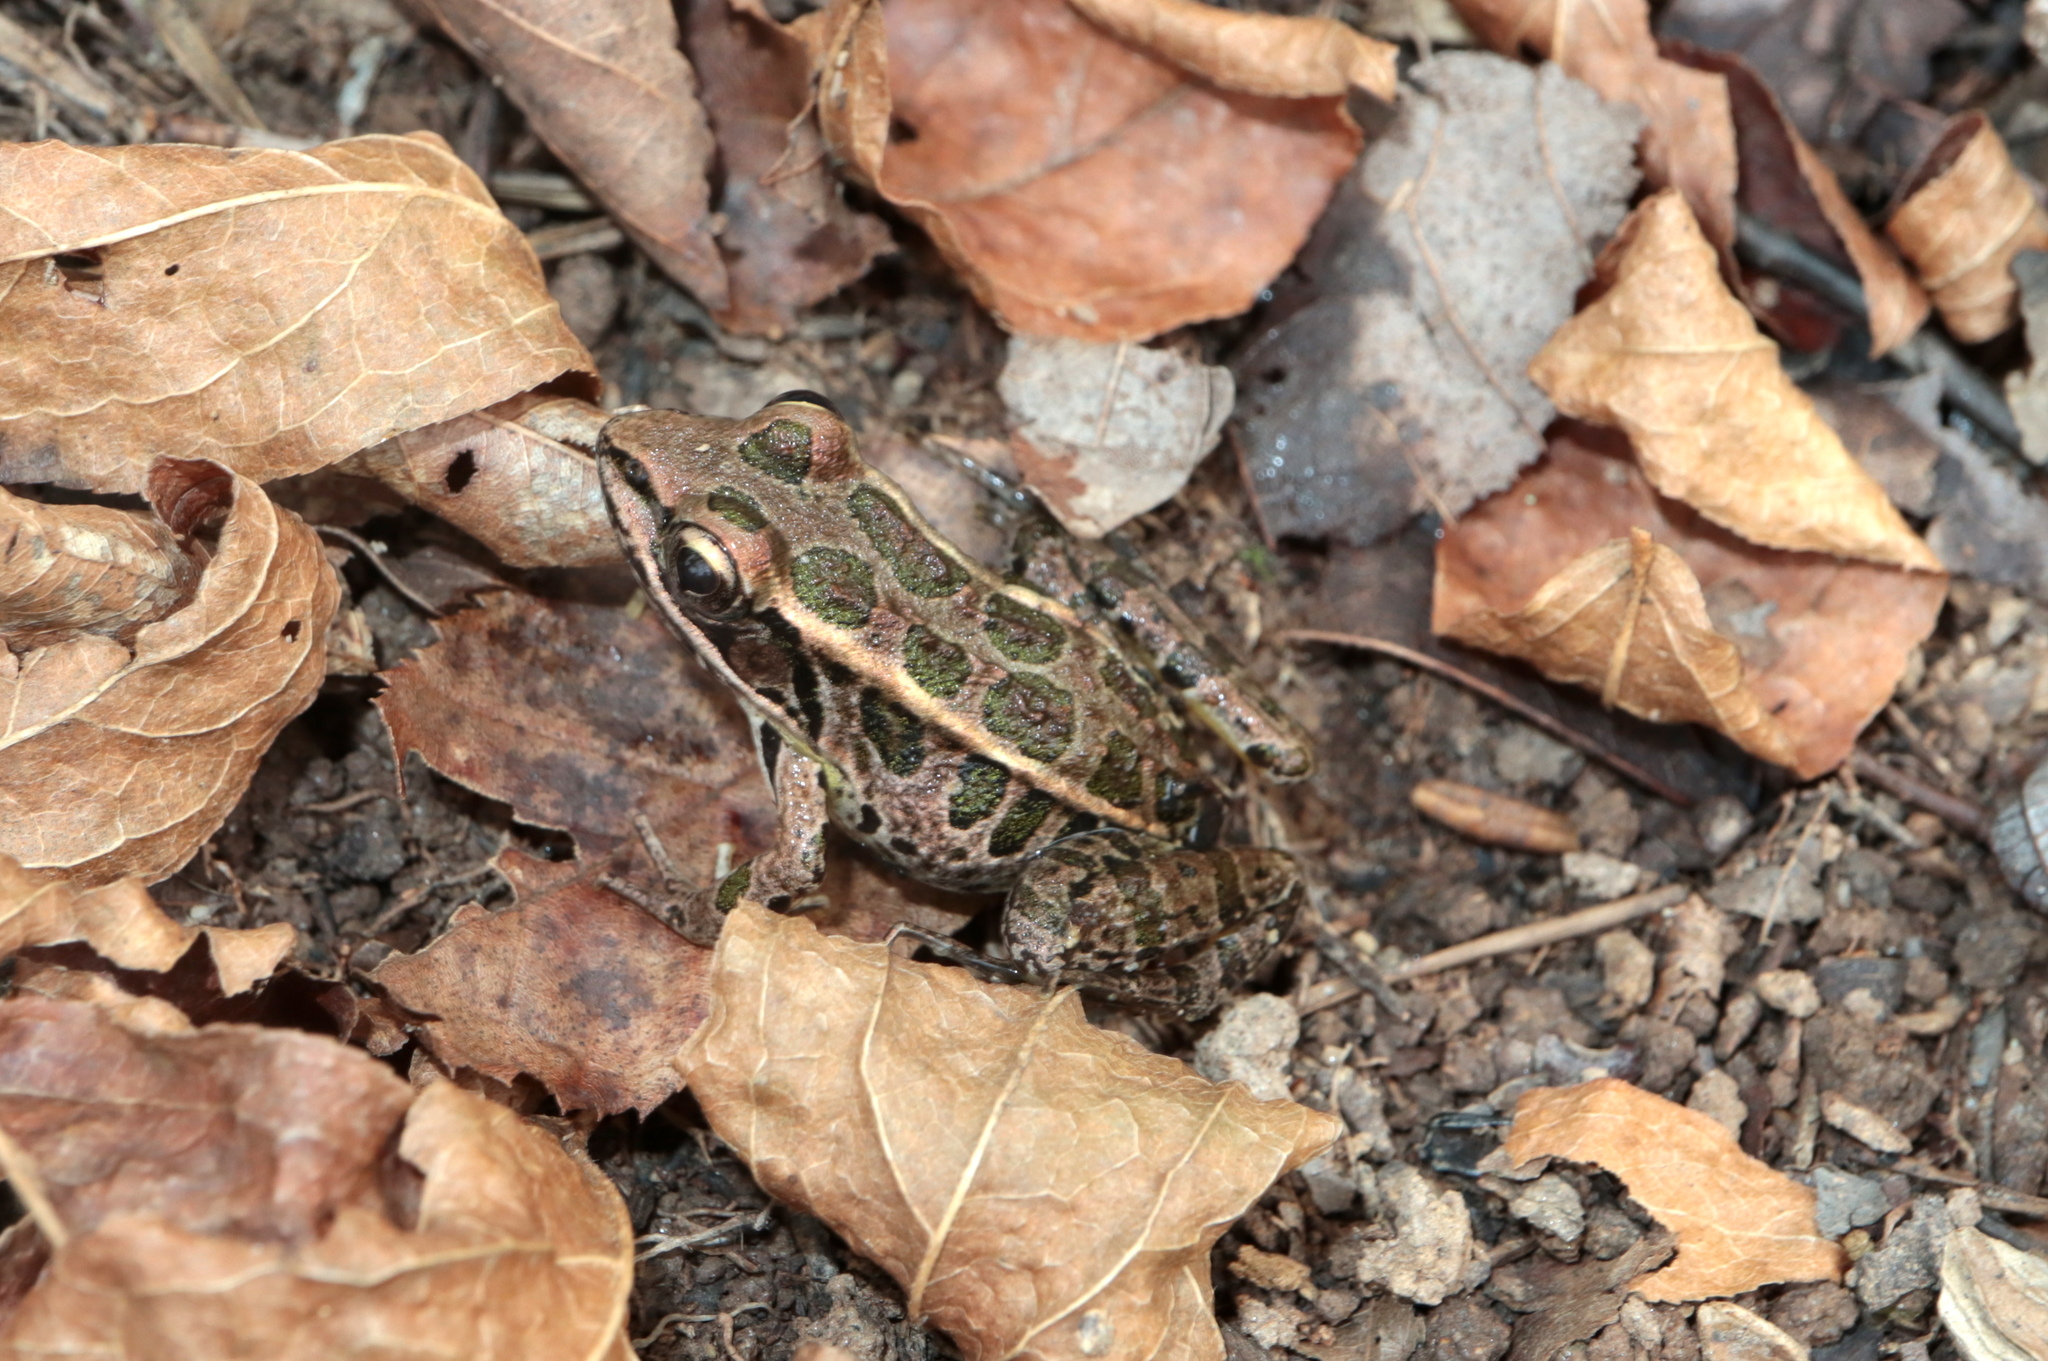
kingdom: Animalia
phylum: Chordata
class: Amphibia
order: Anura
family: Ranidae
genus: Lithobates
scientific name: Lithobates palustris
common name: Pickerel frog
